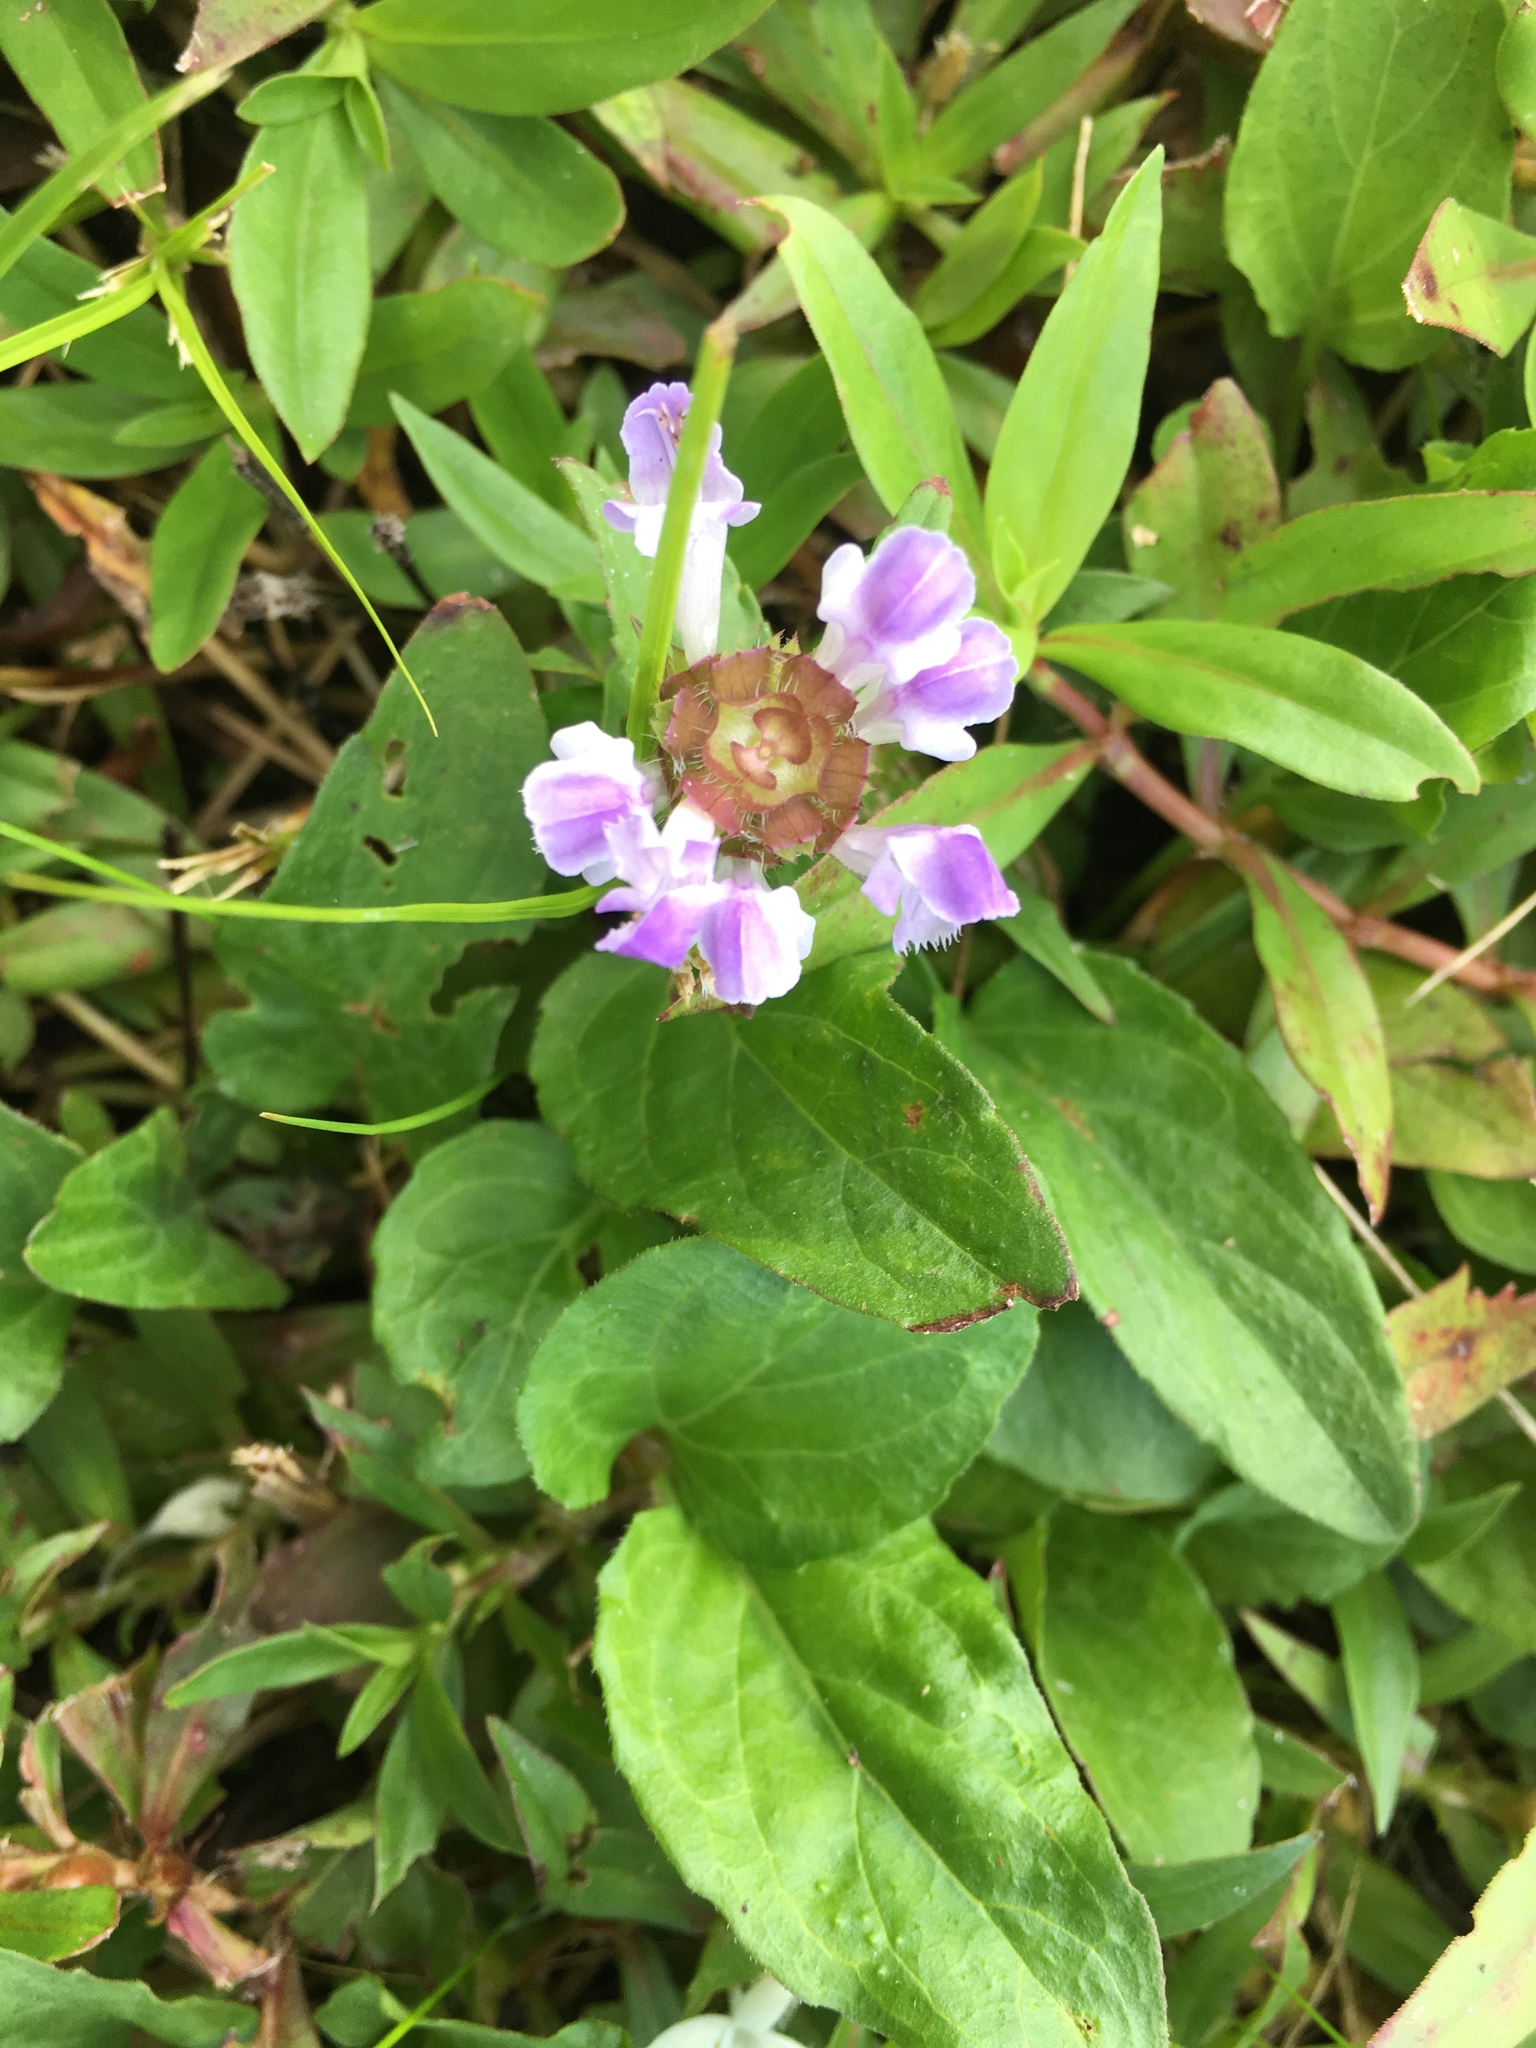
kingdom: Plantae
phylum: Tracheophyta
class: Magnoliopsida
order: Lamiales
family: Lamiaceae
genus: Prunella
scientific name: Prunella vulgaris
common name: Heal-all
